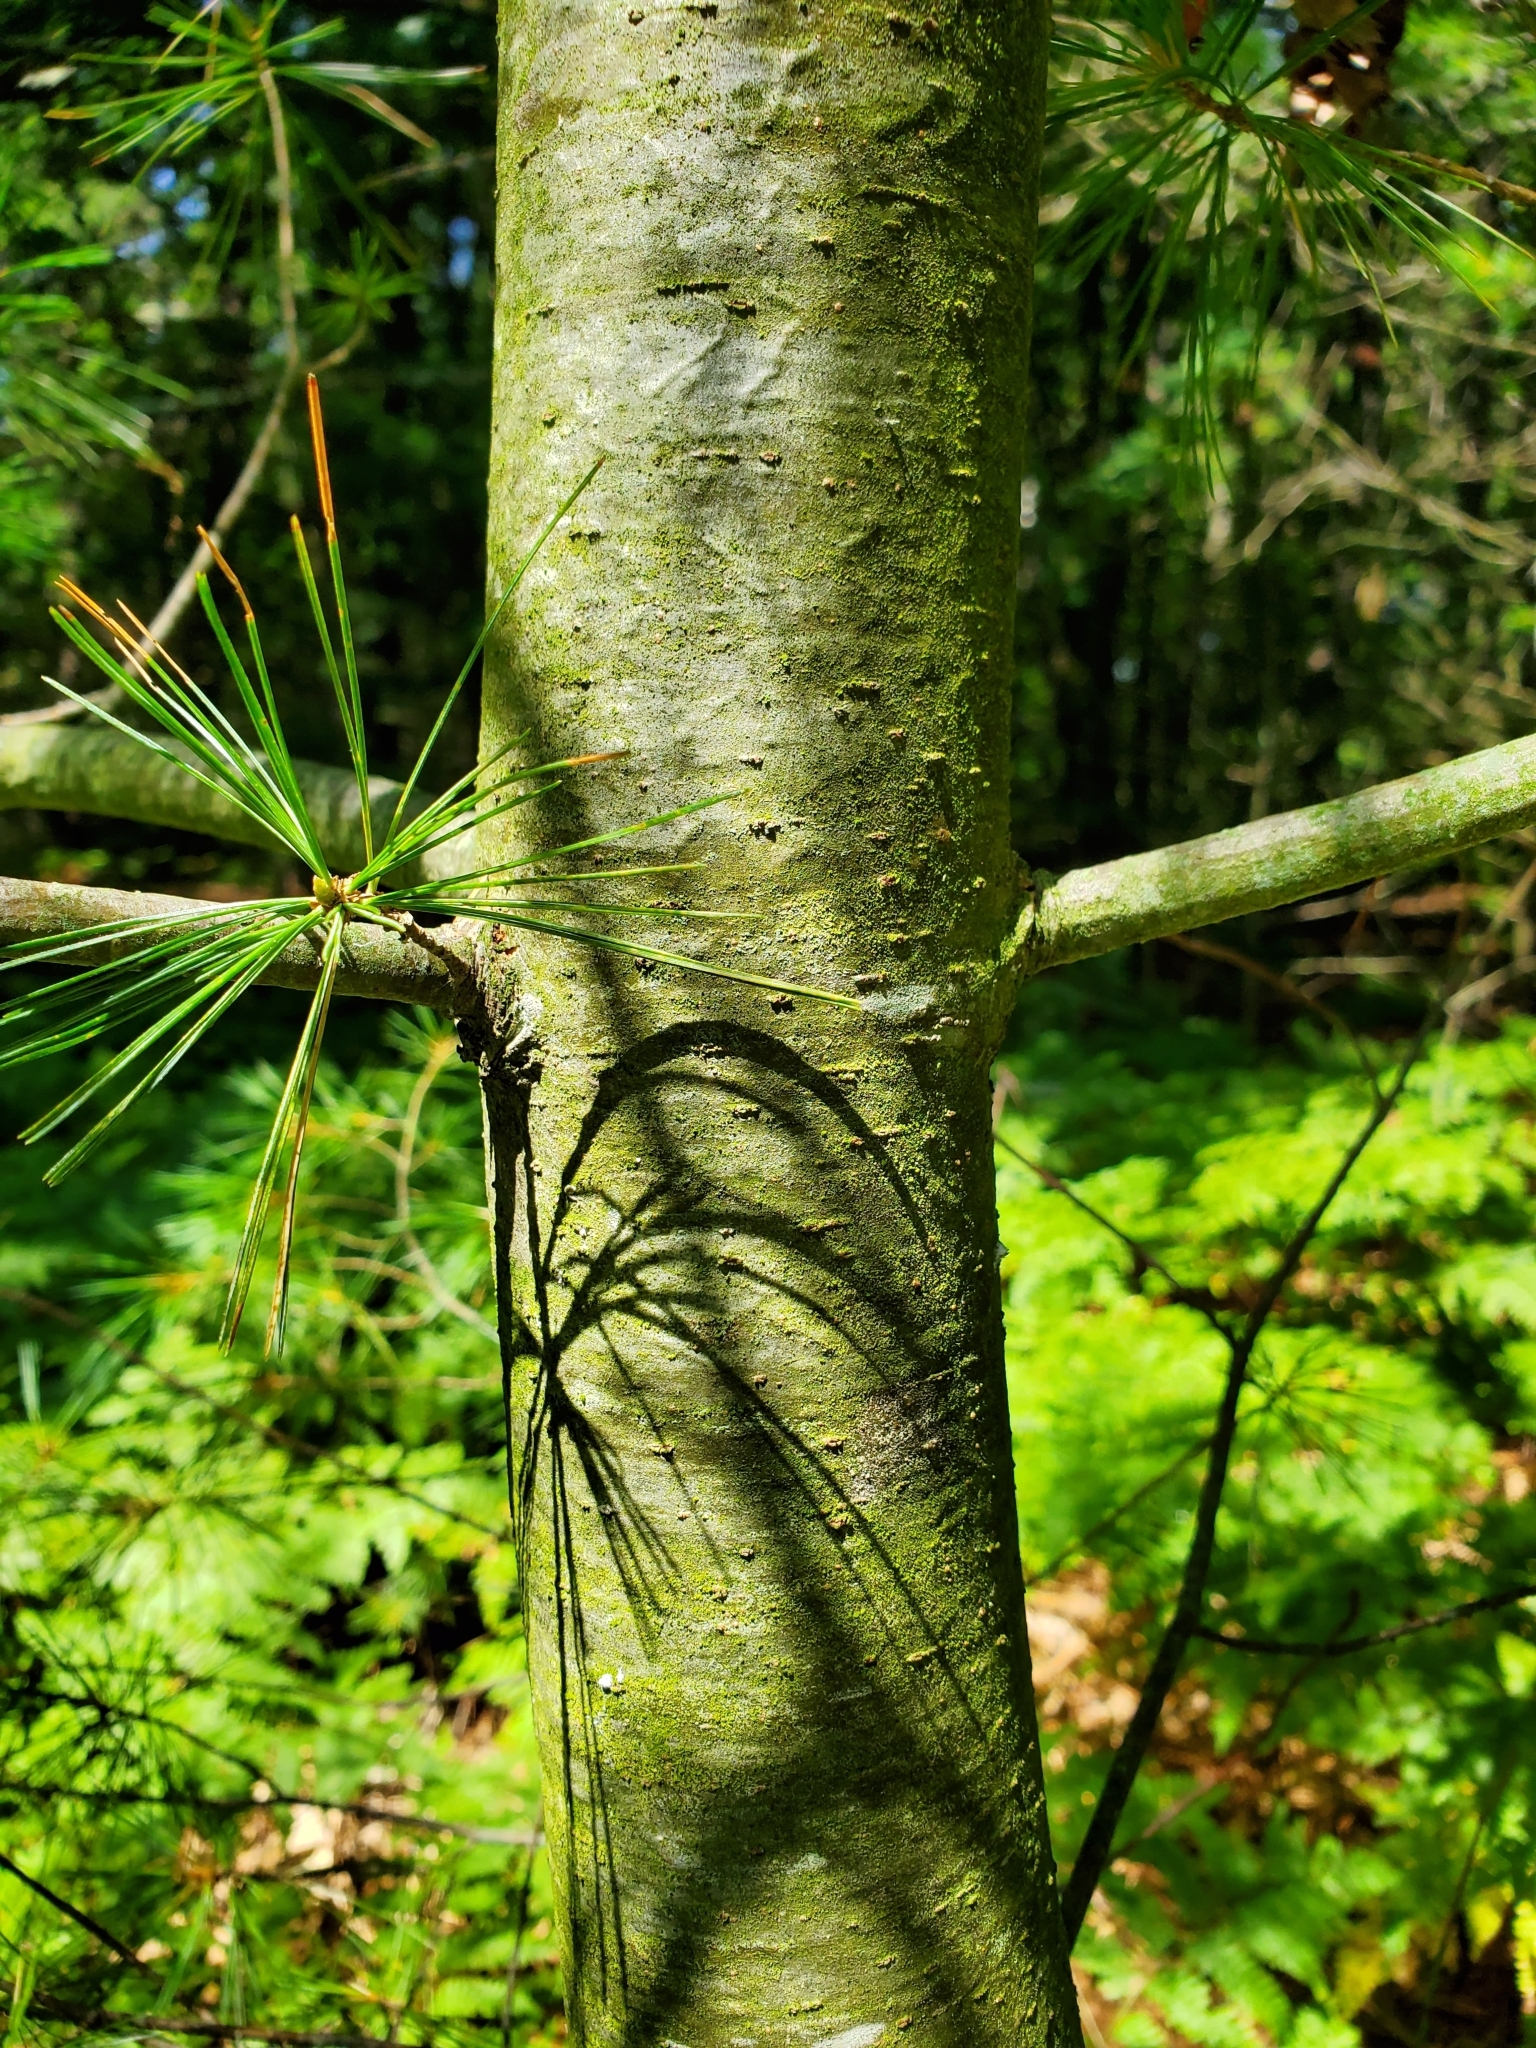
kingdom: Plantae
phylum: Tracheophyta
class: Pinopsida
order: Pinales
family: Pinaceae
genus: Pinus
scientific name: Pinus strobus
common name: Weymouth pine
